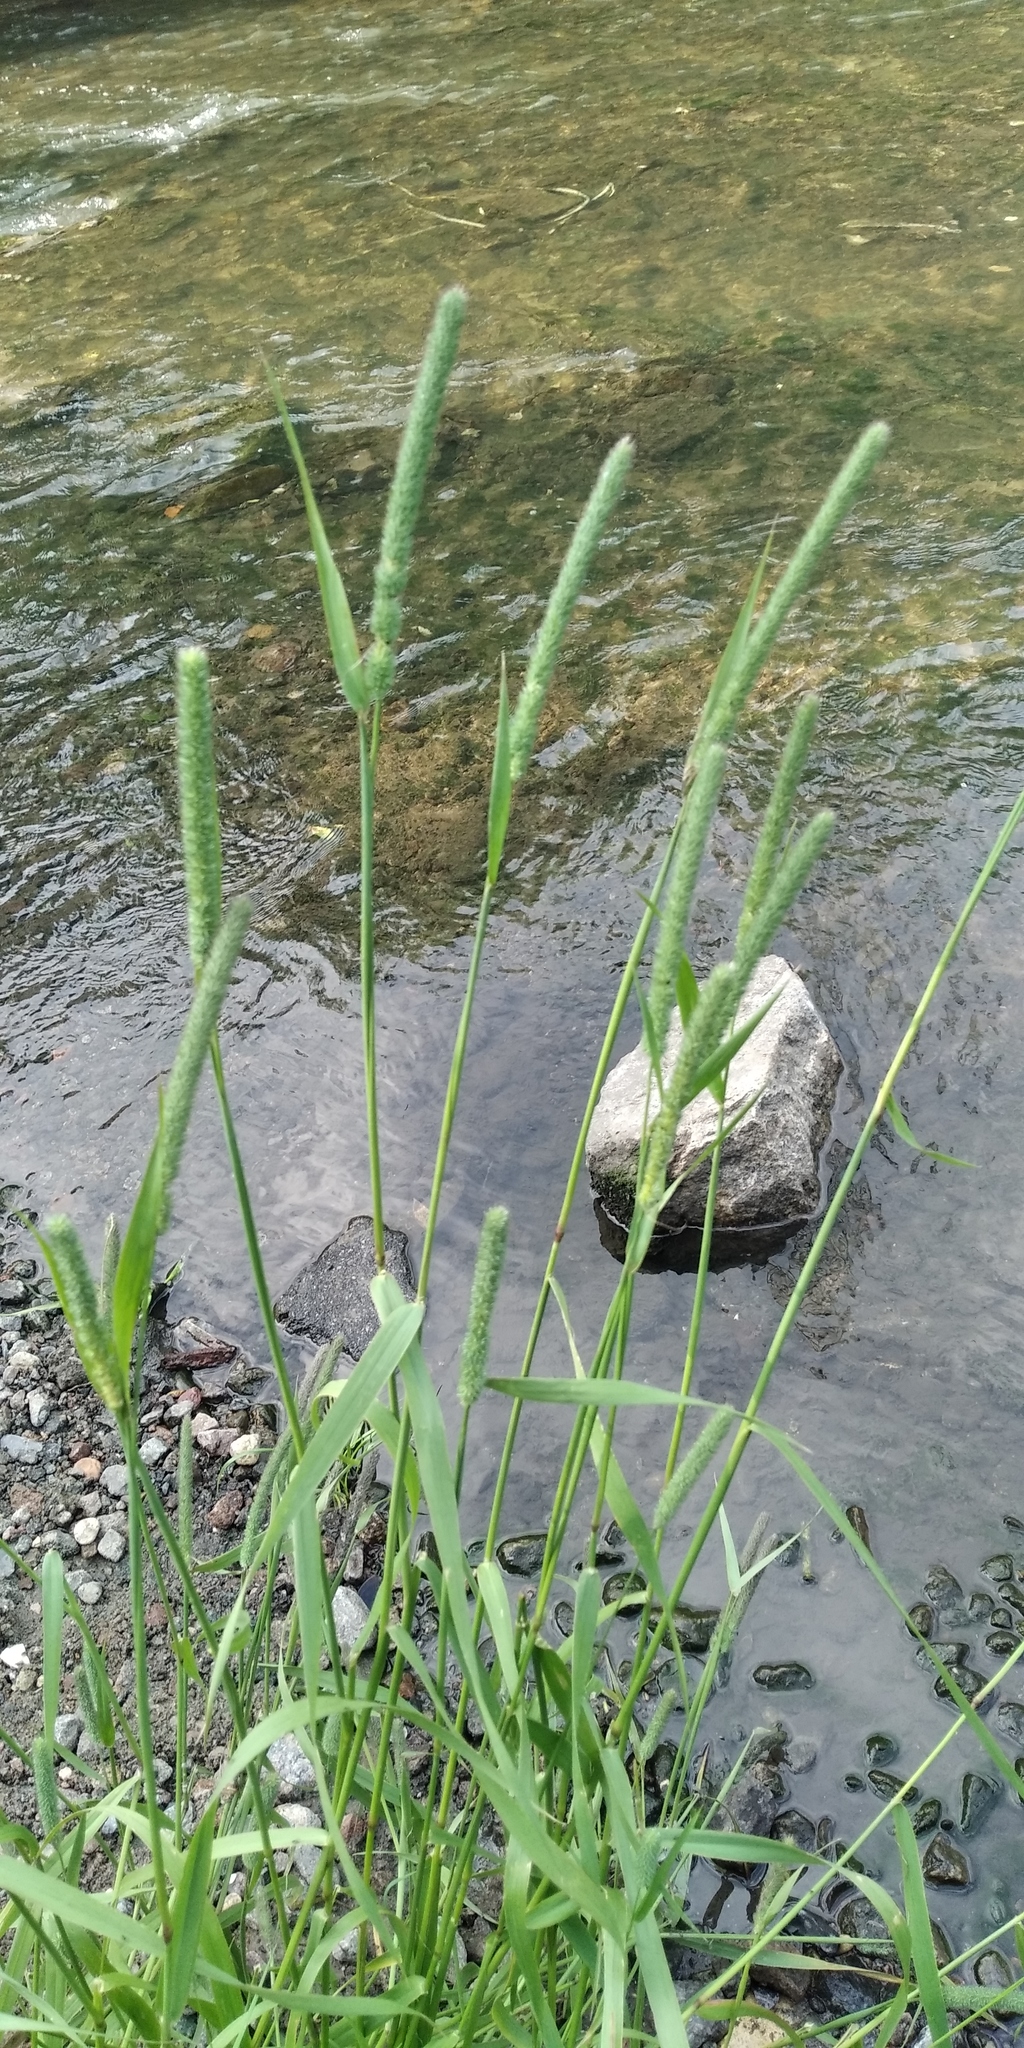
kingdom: Plantae
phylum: Tracheophyta
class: Liliopsida
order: Poales
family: Poaceae
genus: Phleum
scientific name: Phleum pratense
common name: Timothy grass
